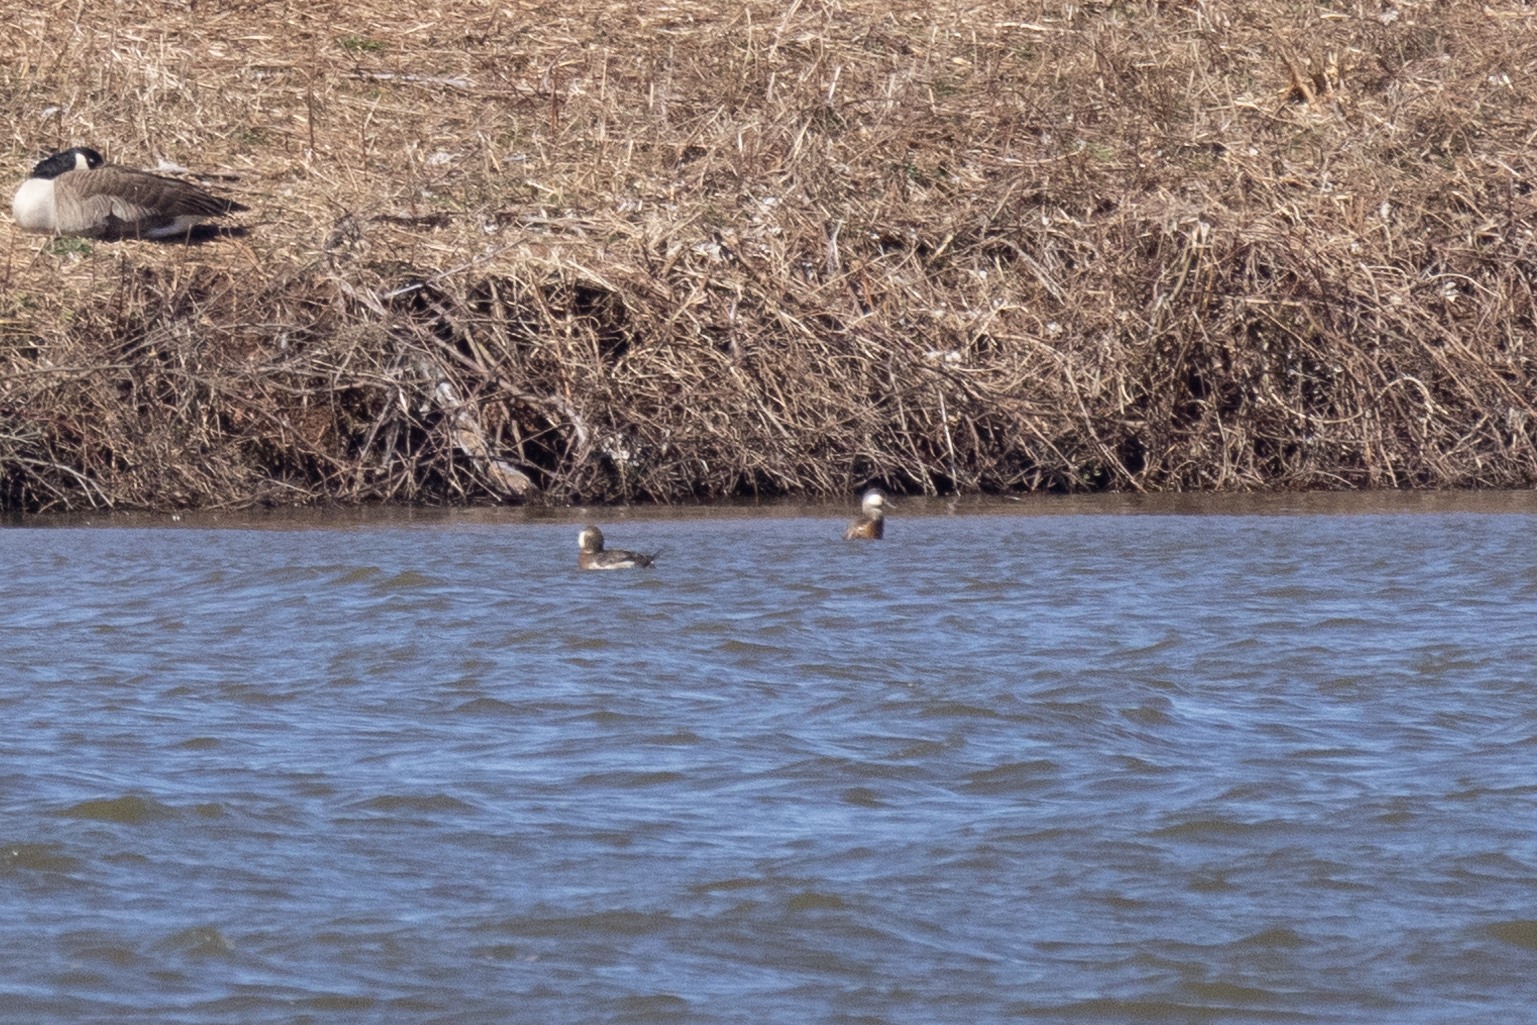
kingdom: Animalia
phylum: Chordata
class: Aves
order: Anseriformes
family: Anatidae
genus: Oxyura
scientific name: Oxyura jamaicensis
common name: Ruddy duck
